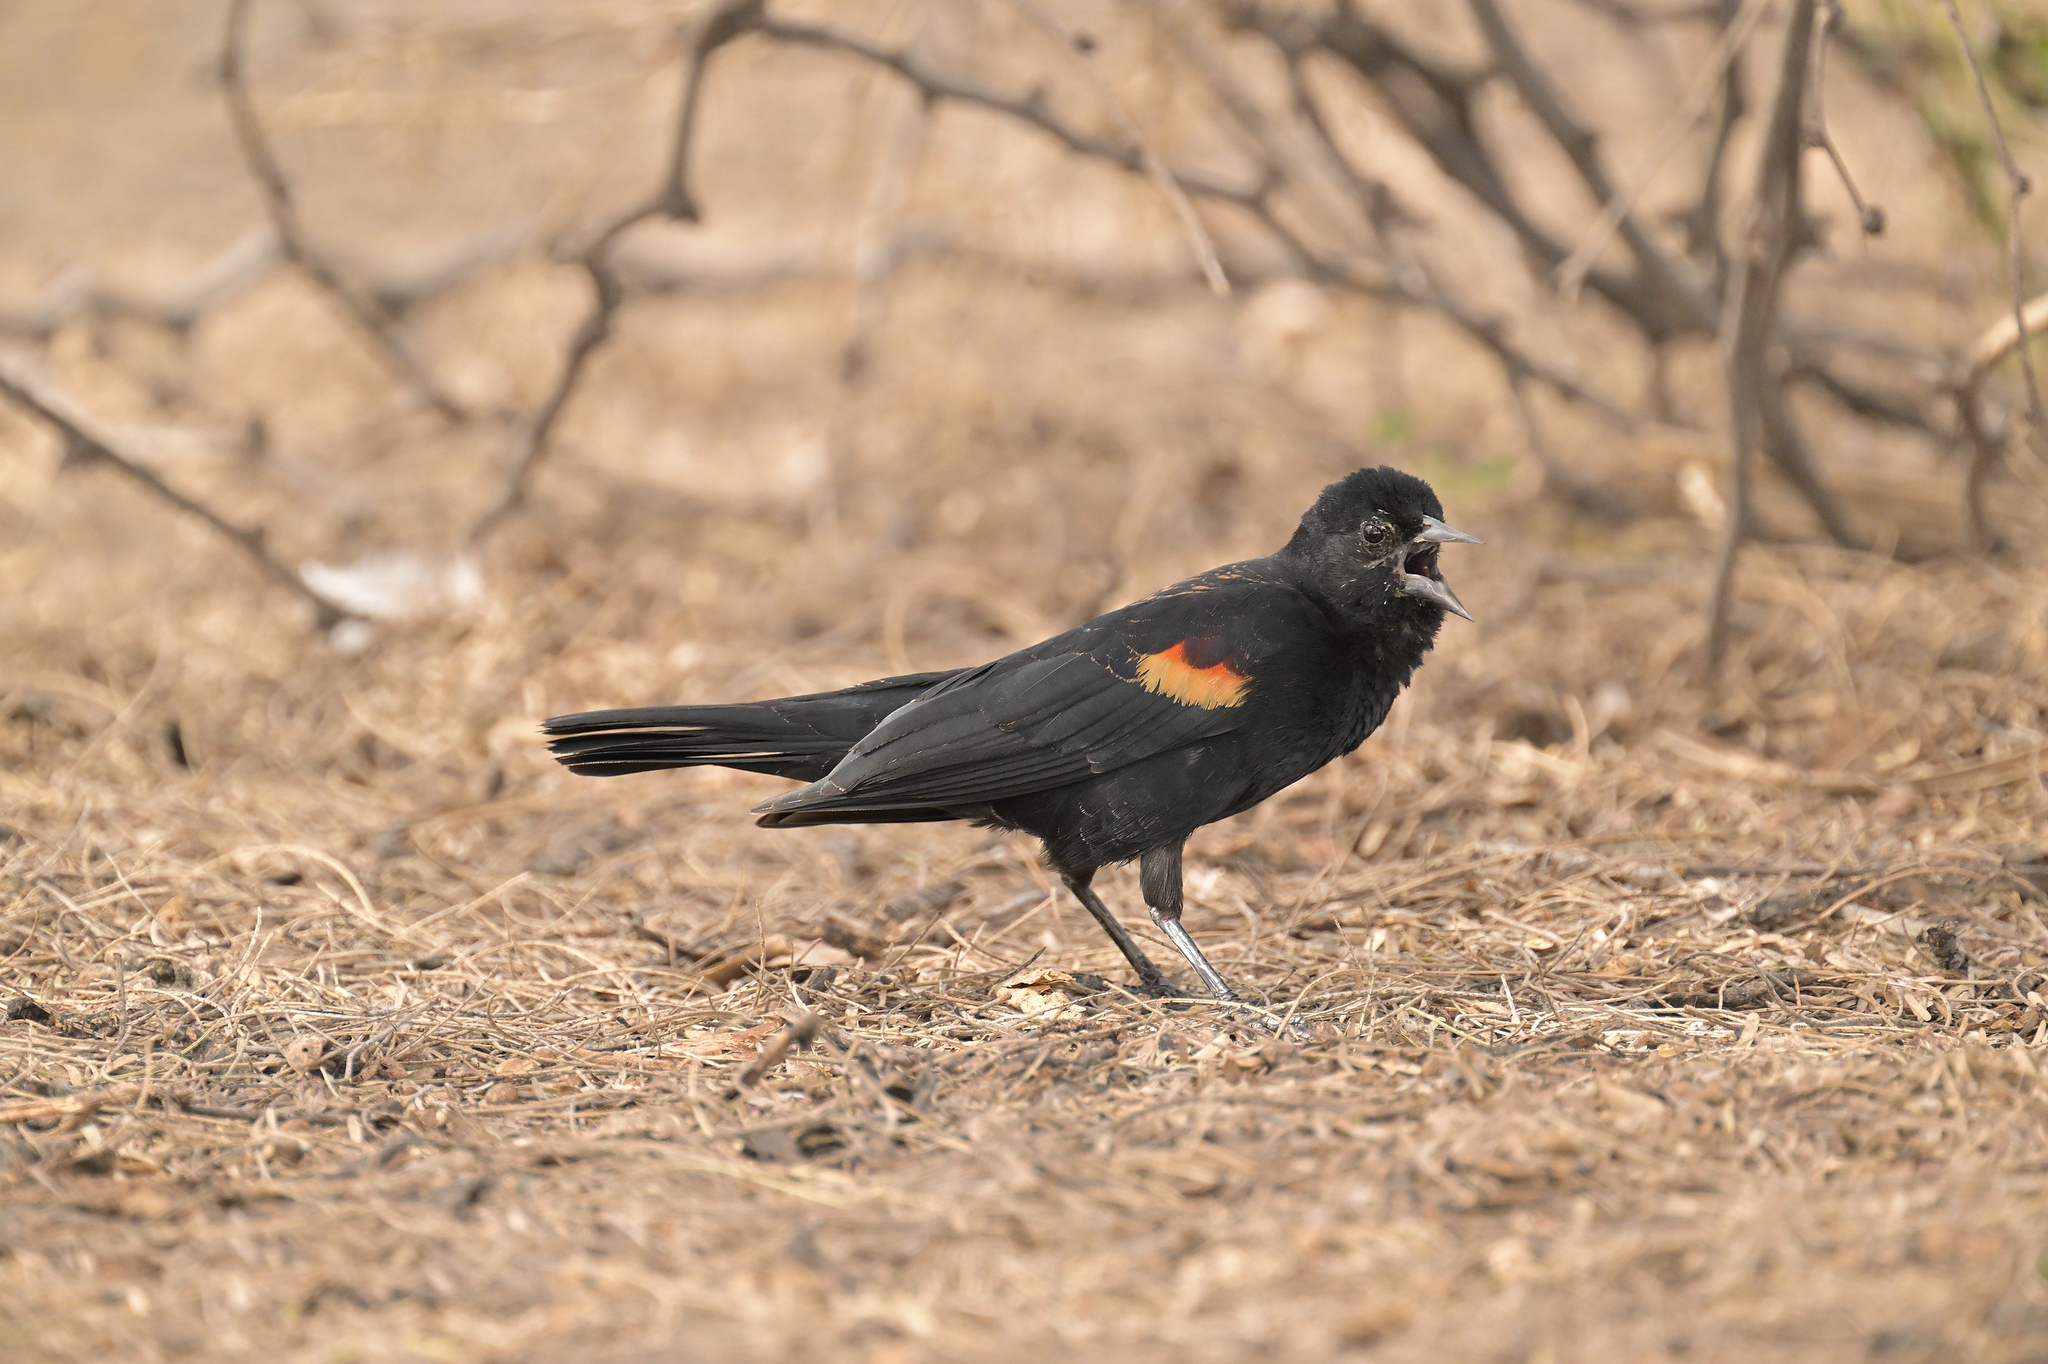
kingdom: Animalia
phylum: Chordata
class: Aves
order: Passeriformes
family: Icteridae
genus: Agelaius
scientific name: Agelaius phoeniceus
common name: Red-winged blackbird
